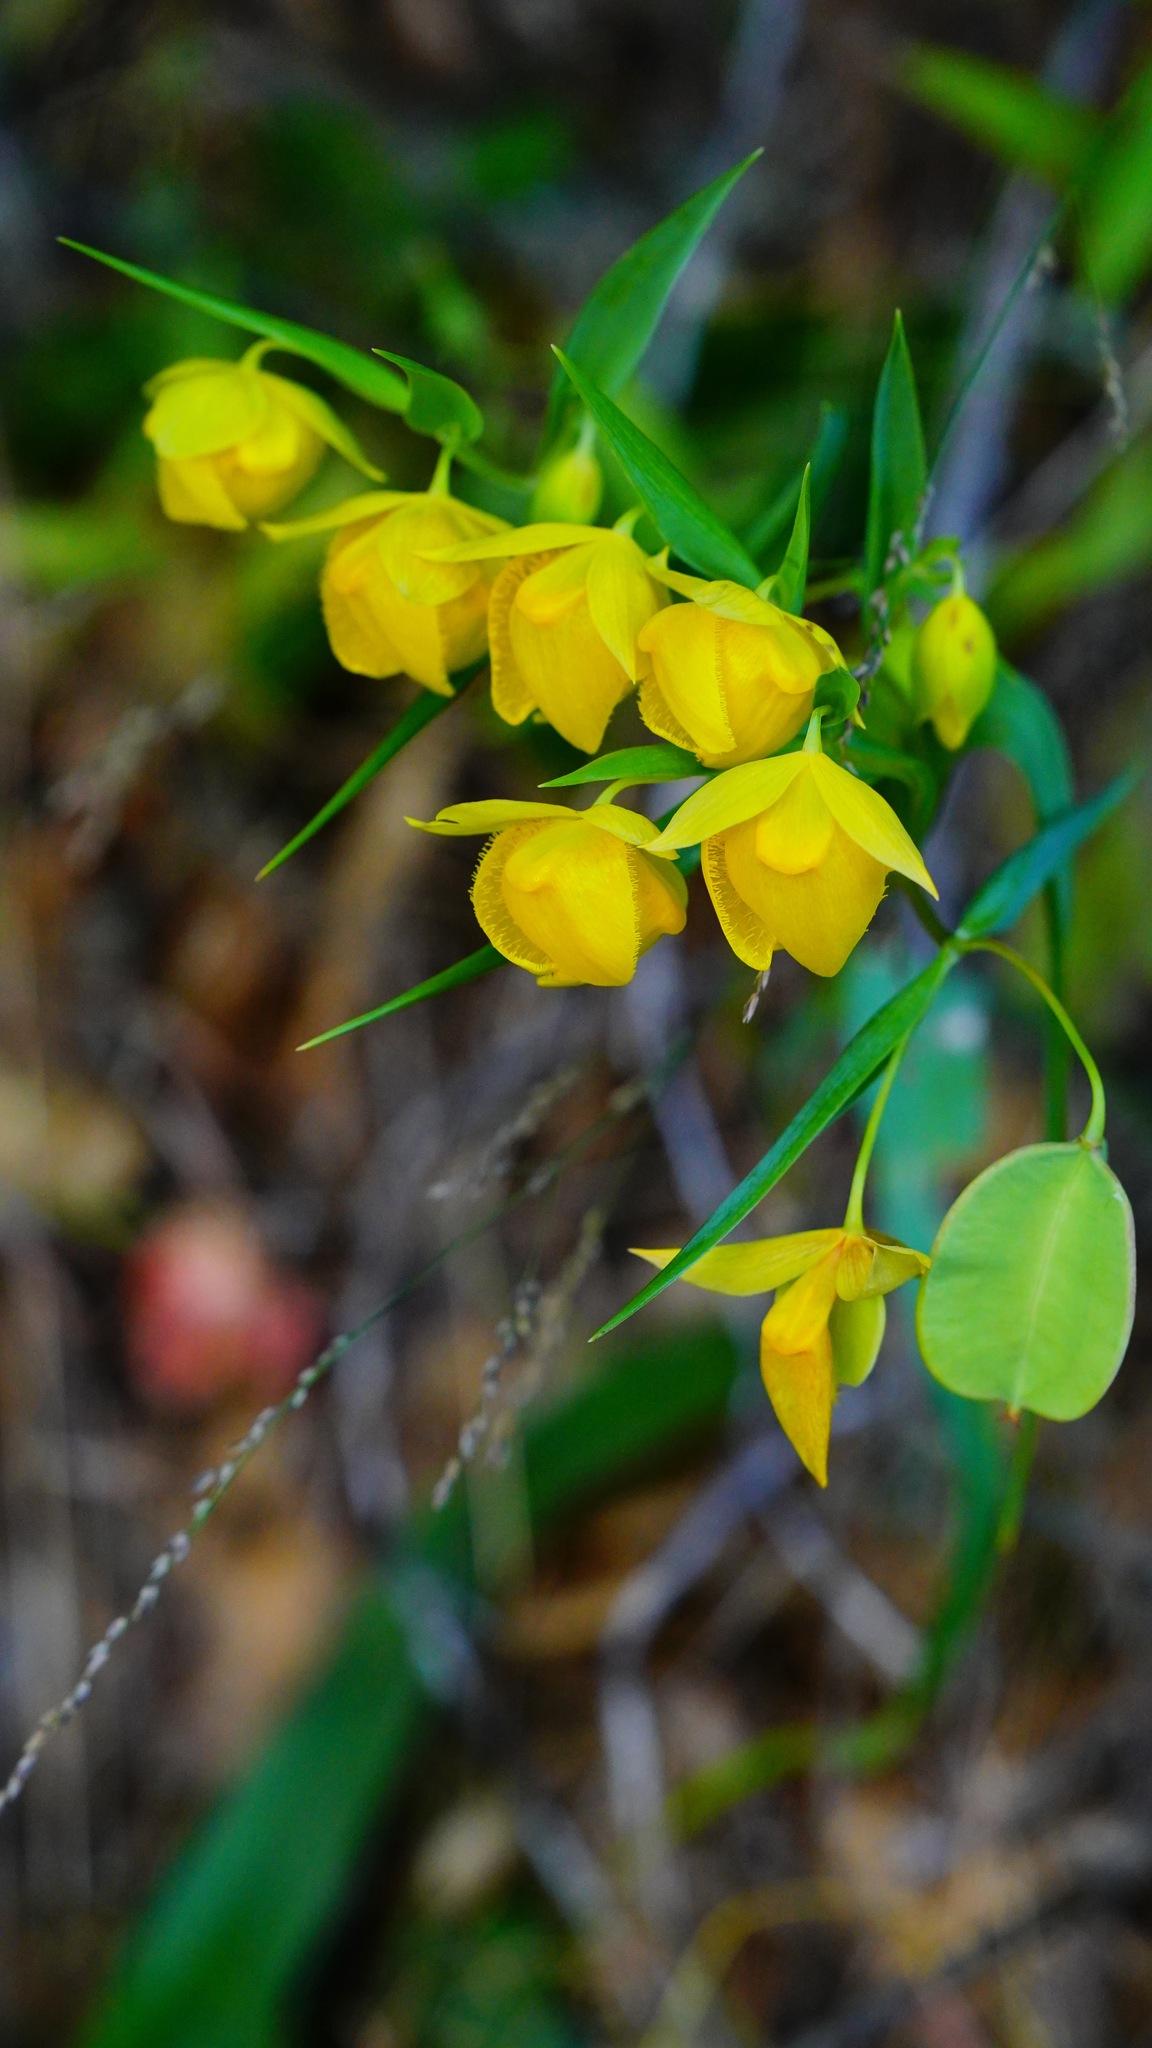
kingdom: Plantae
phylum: Tracheophyta
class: Liliopsida
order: Liliales
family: Liliaceae
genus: Calochortus
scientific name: Calochortus pulchellus
